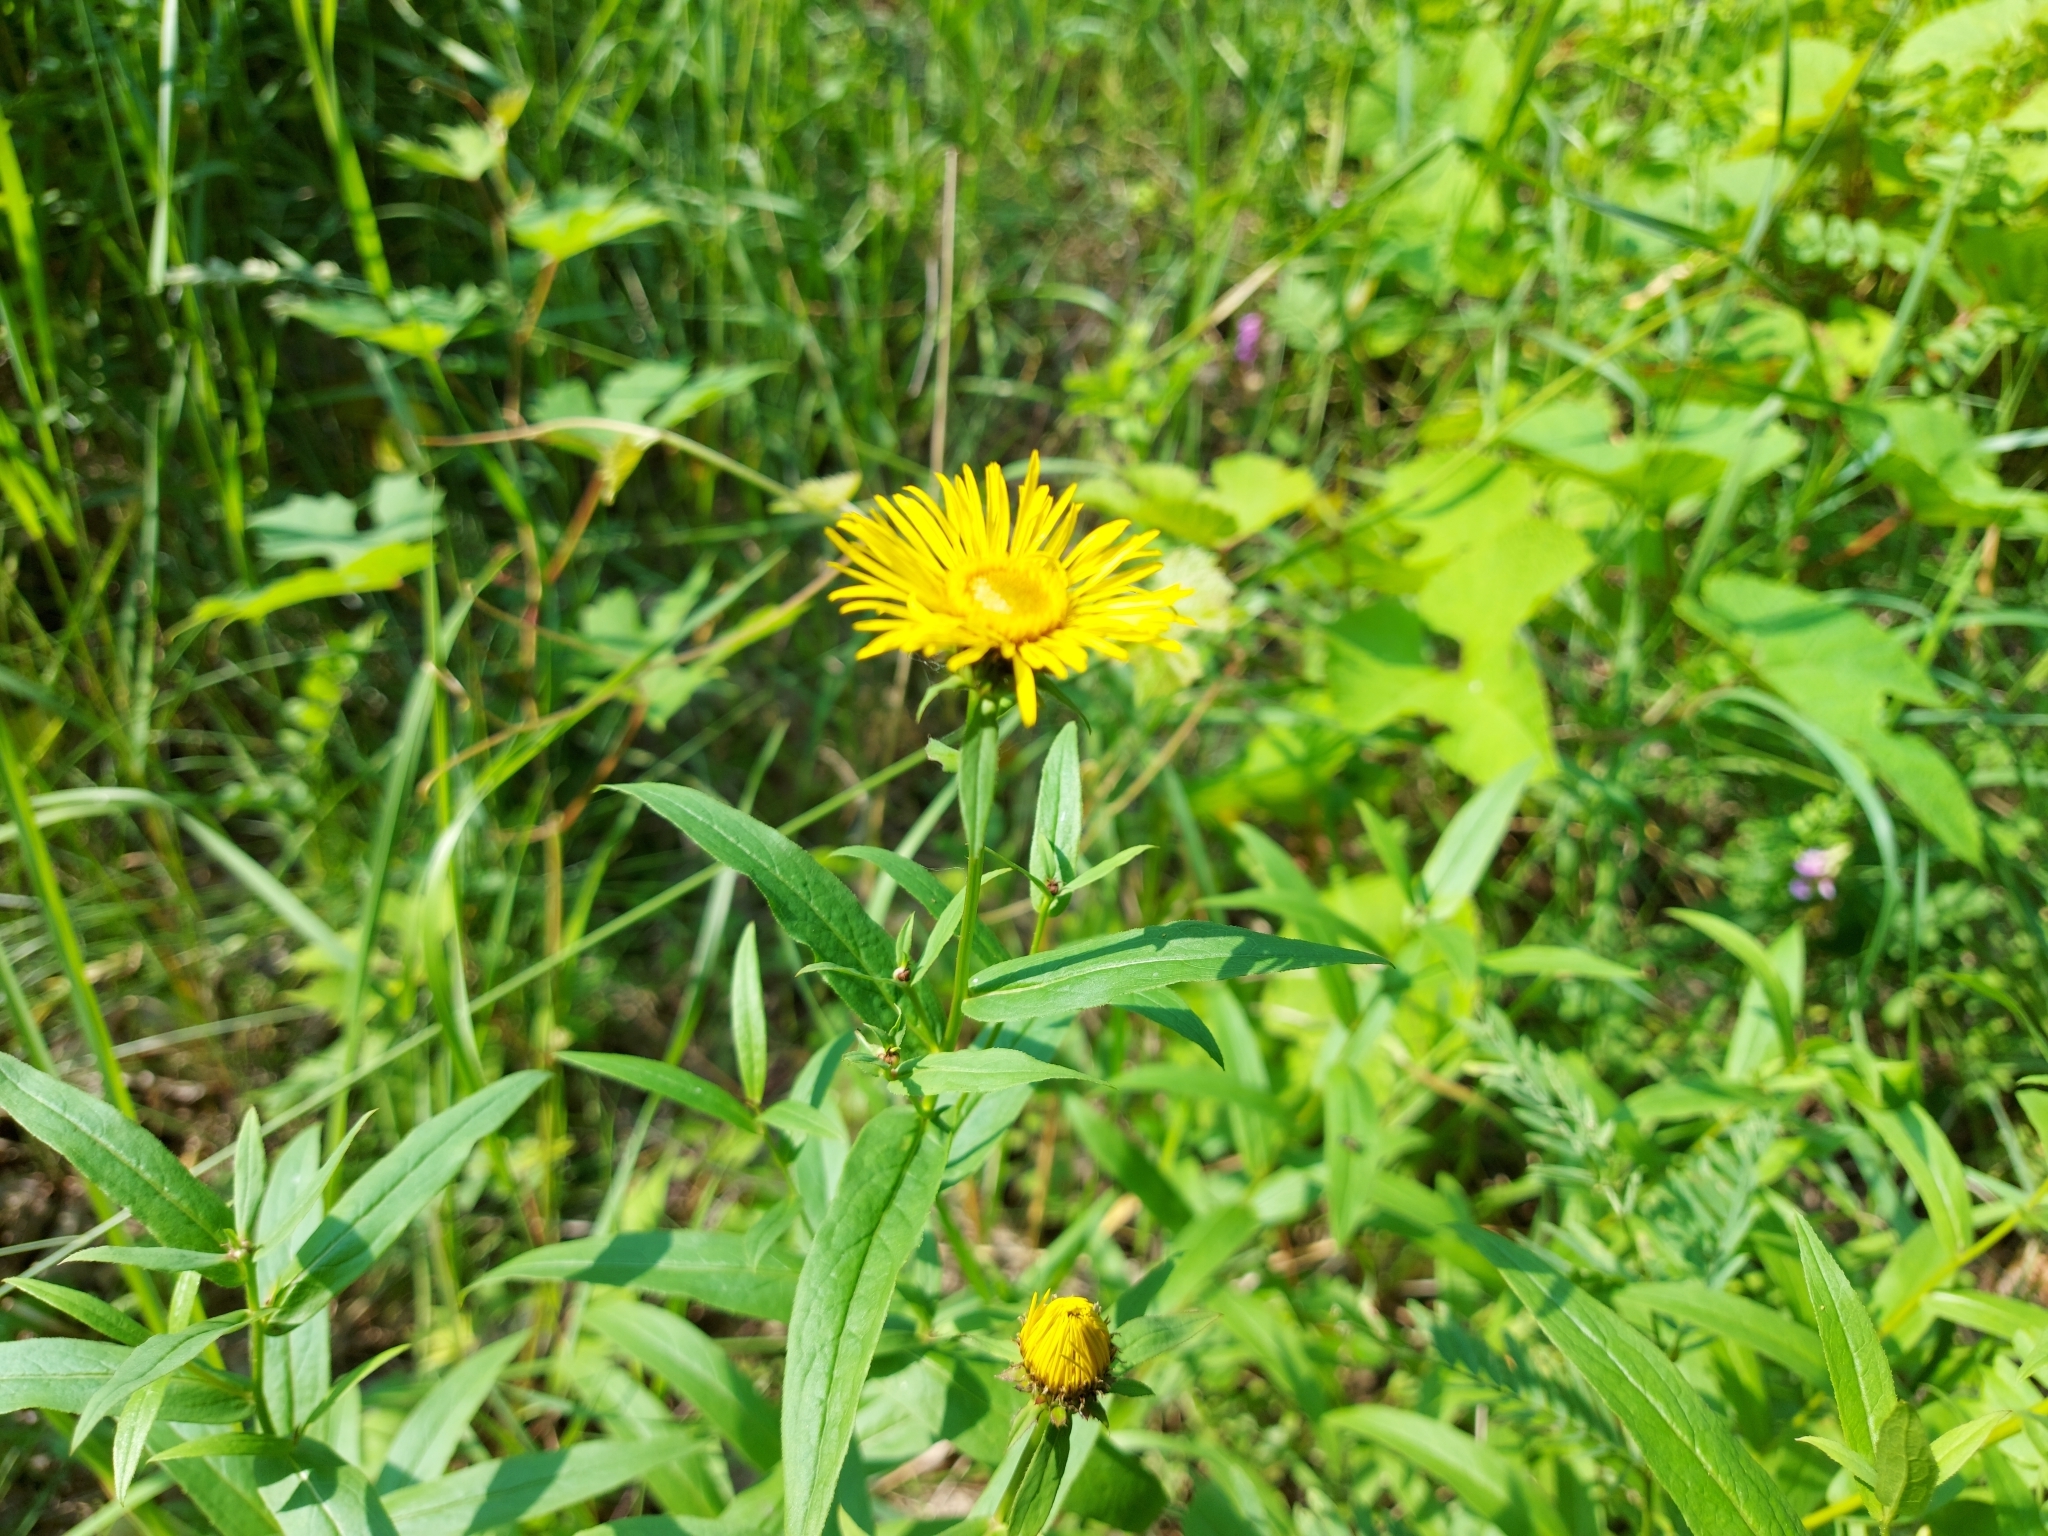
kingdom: Plantae
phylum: Tracheophyta
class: Magnoliopsida
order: Asterales
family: Asteraceae
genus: Pentanema
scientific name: Pentanema salicinum
